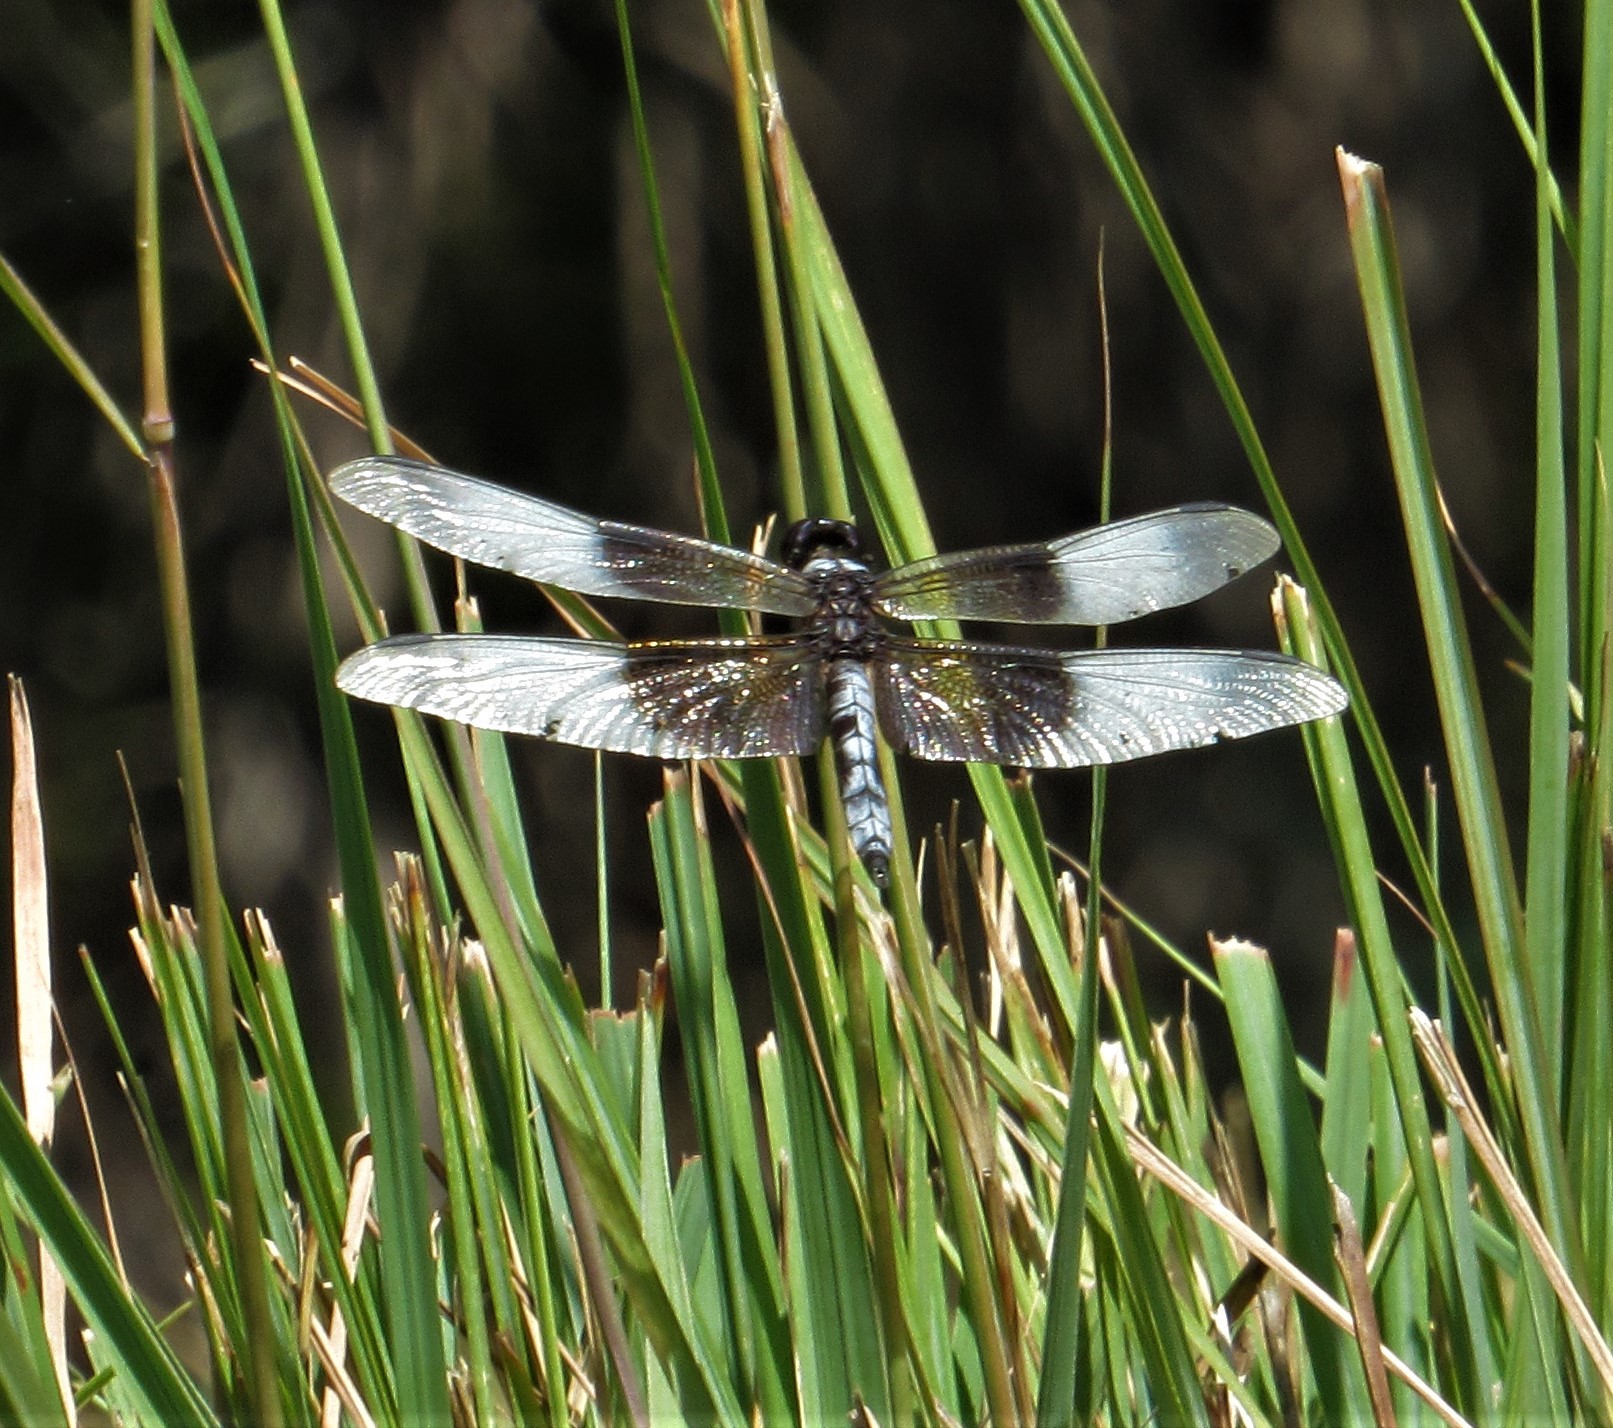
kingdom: Animalia
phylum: Arthropoda
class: Insecta
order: Odonata
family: Libellulidae
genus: Libellula
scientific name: Libellula luctuosa
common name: Widow skimmer
